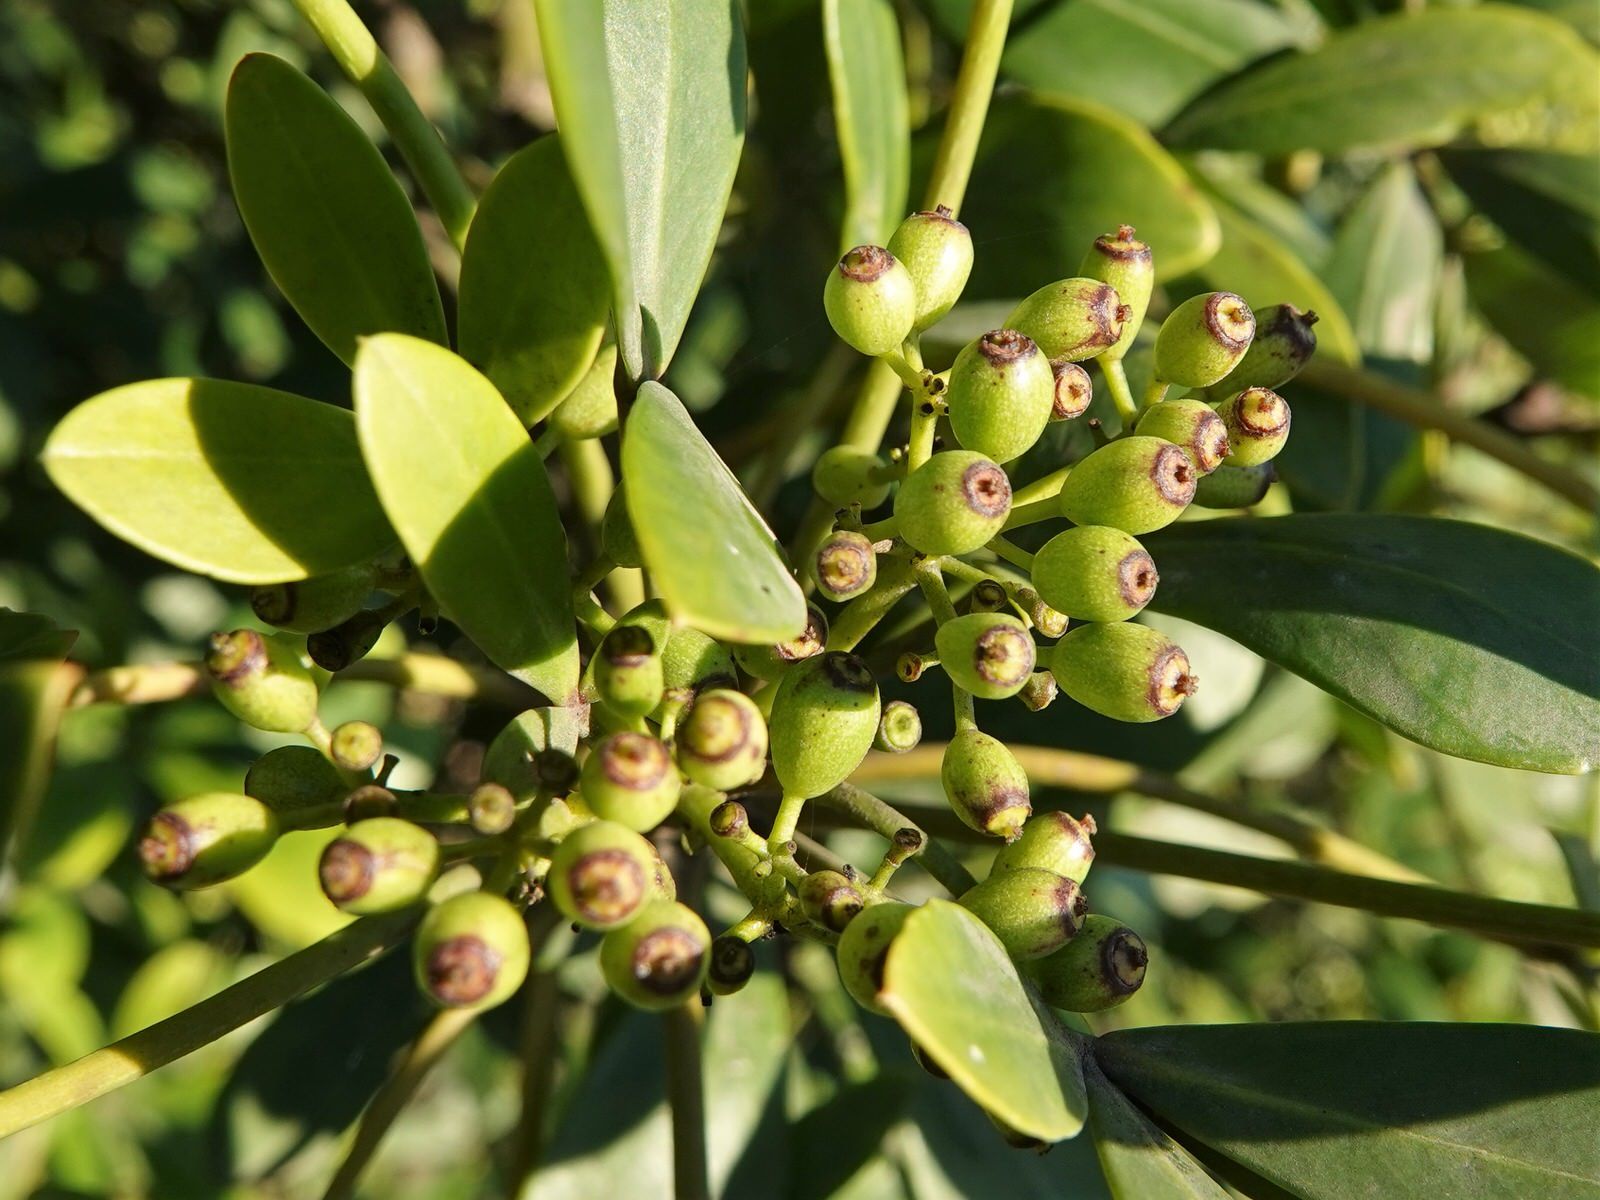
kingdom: Plantae
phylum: Tracheophyta
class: Magnoliopsida
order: Apiales
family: Araliaceae
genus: Pseudopanax
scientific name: Pseudopanax lessonii
